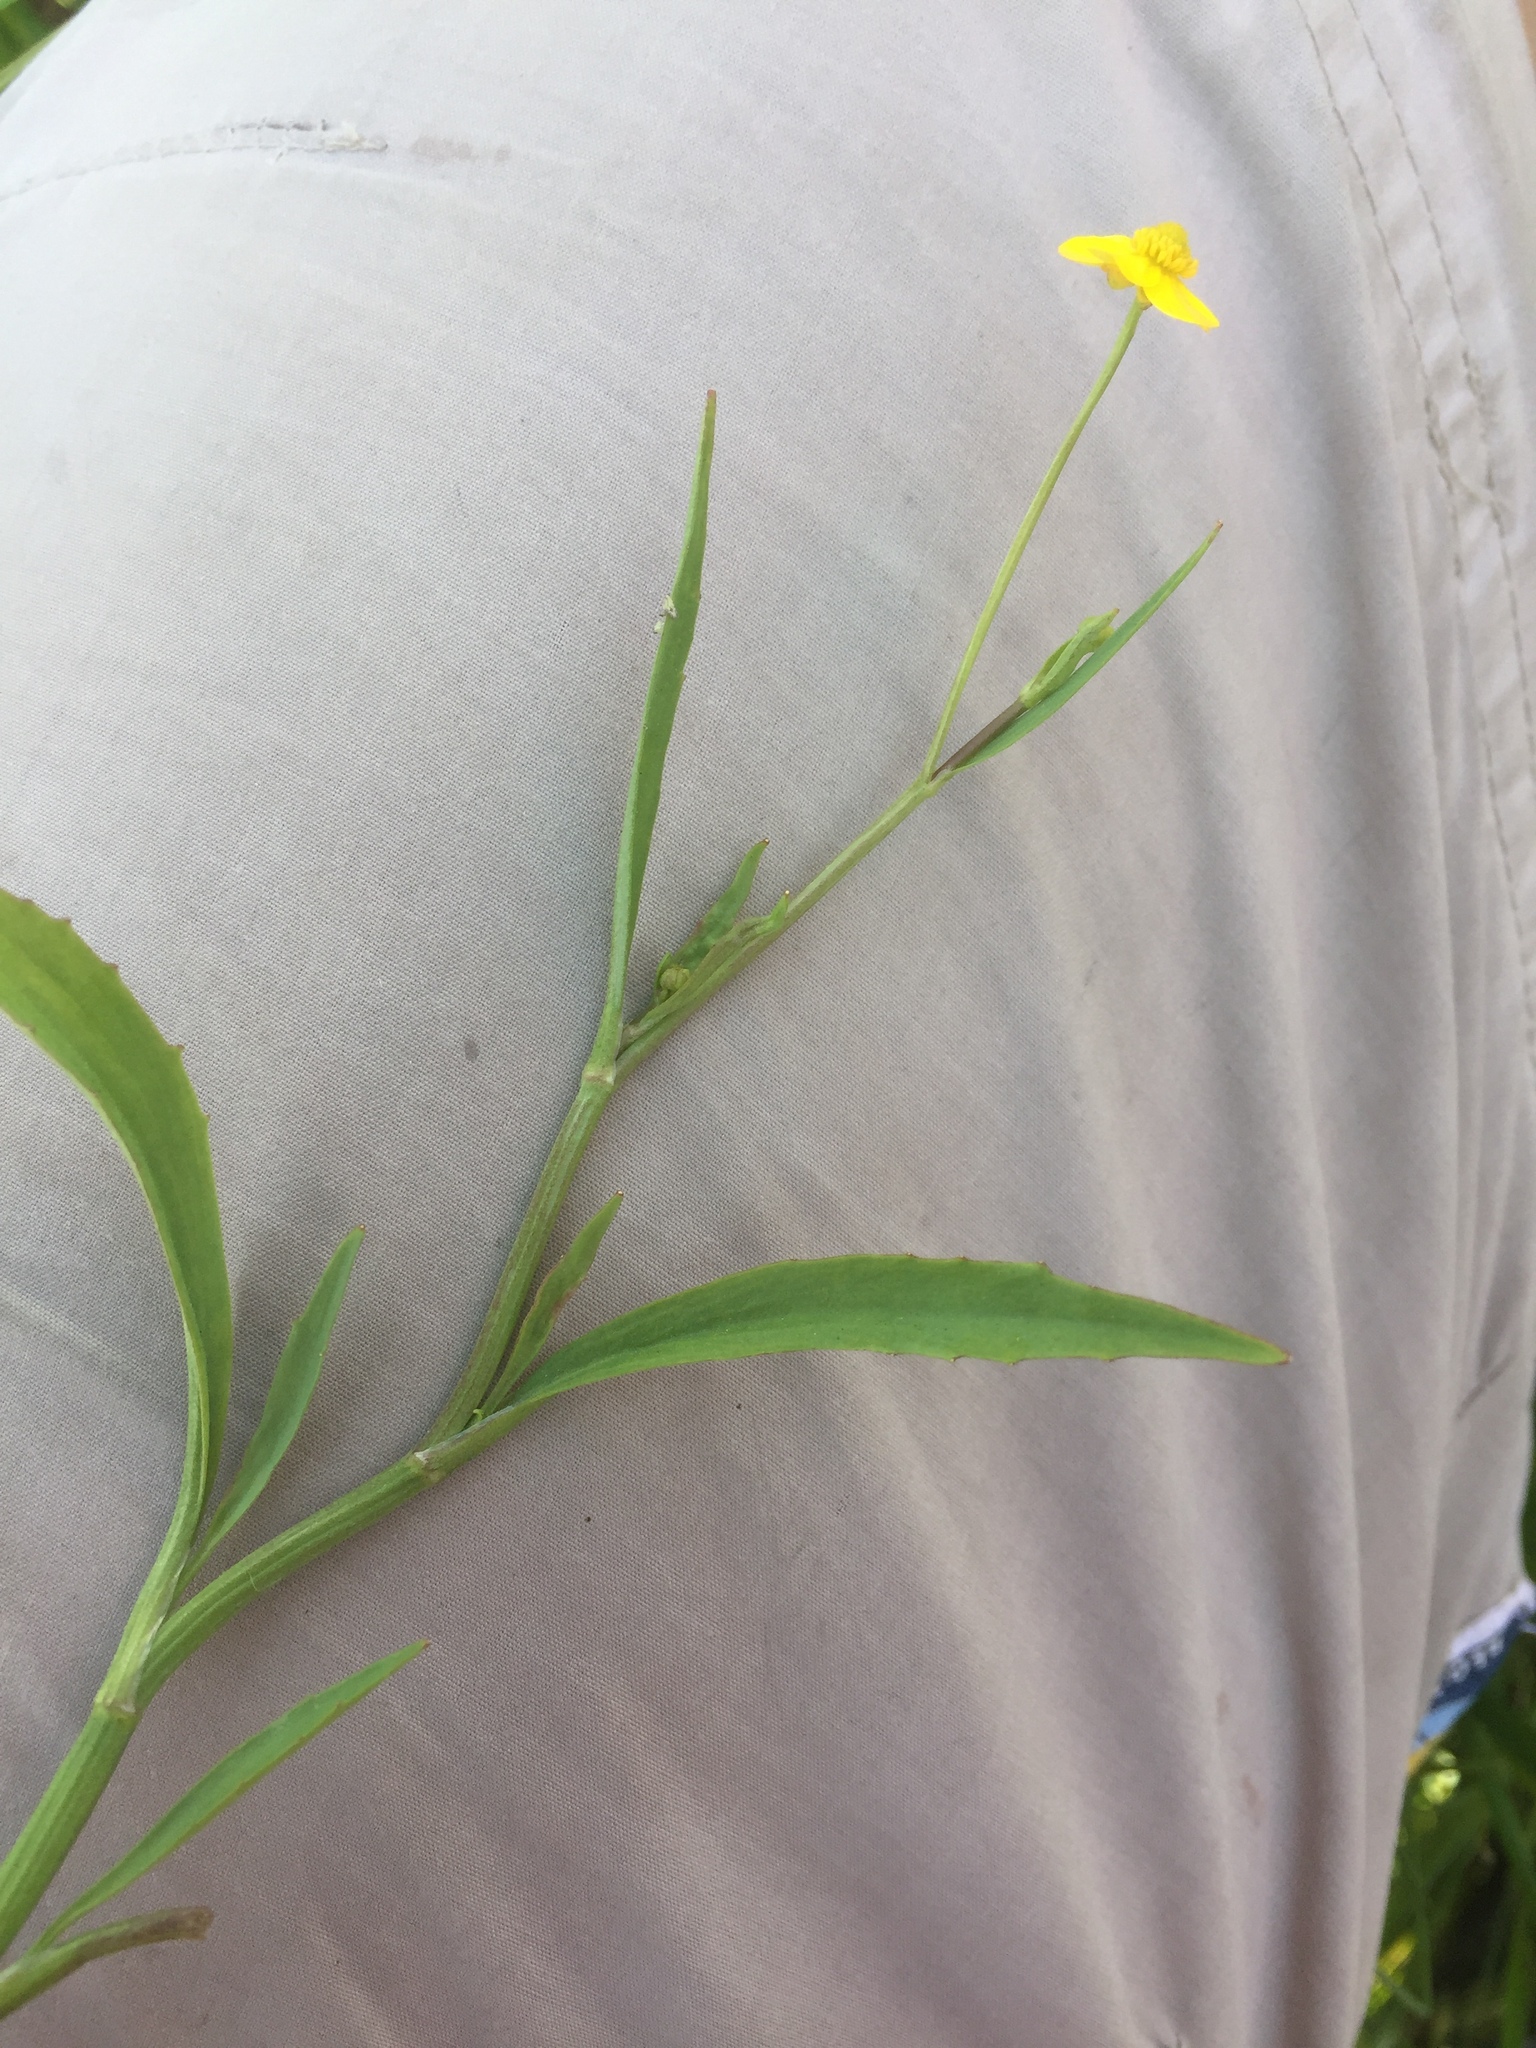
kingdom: Plantae
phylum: Tracheophyta
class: Magnoliopsida
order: Ranunculales
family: Ranunculaceae
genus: Ranunculus
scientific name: Ranunculus flammula
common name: Lesser spearwort
